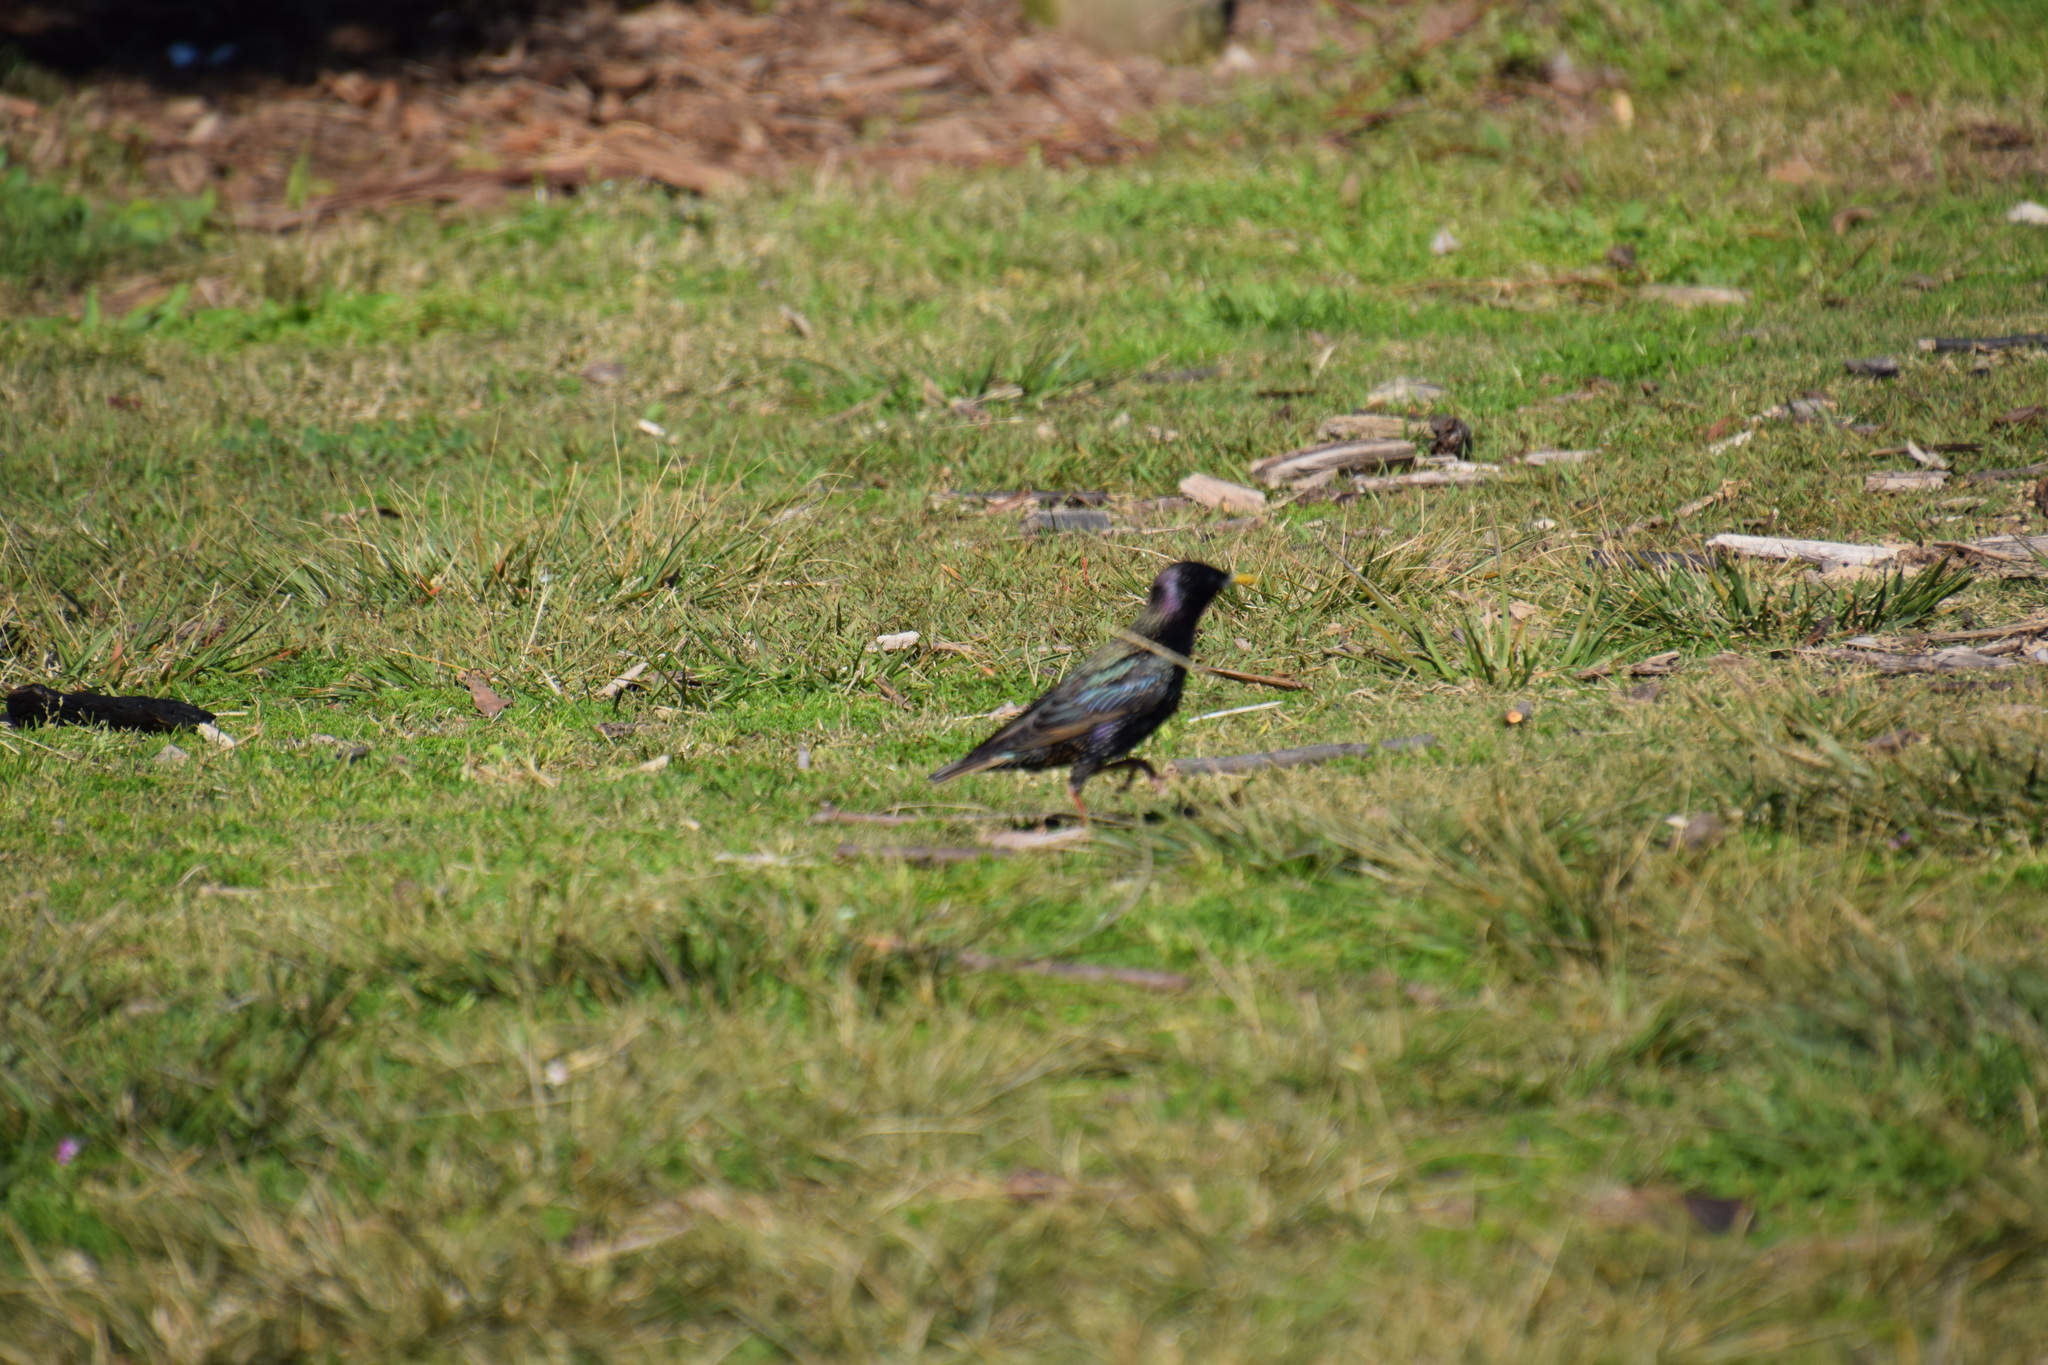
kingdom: Animalia
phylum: Chordata
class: Aves
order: Passeriformes
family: Sturnidae
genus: Sturnus
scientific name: Sturnus vulgaris
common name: Common starling
